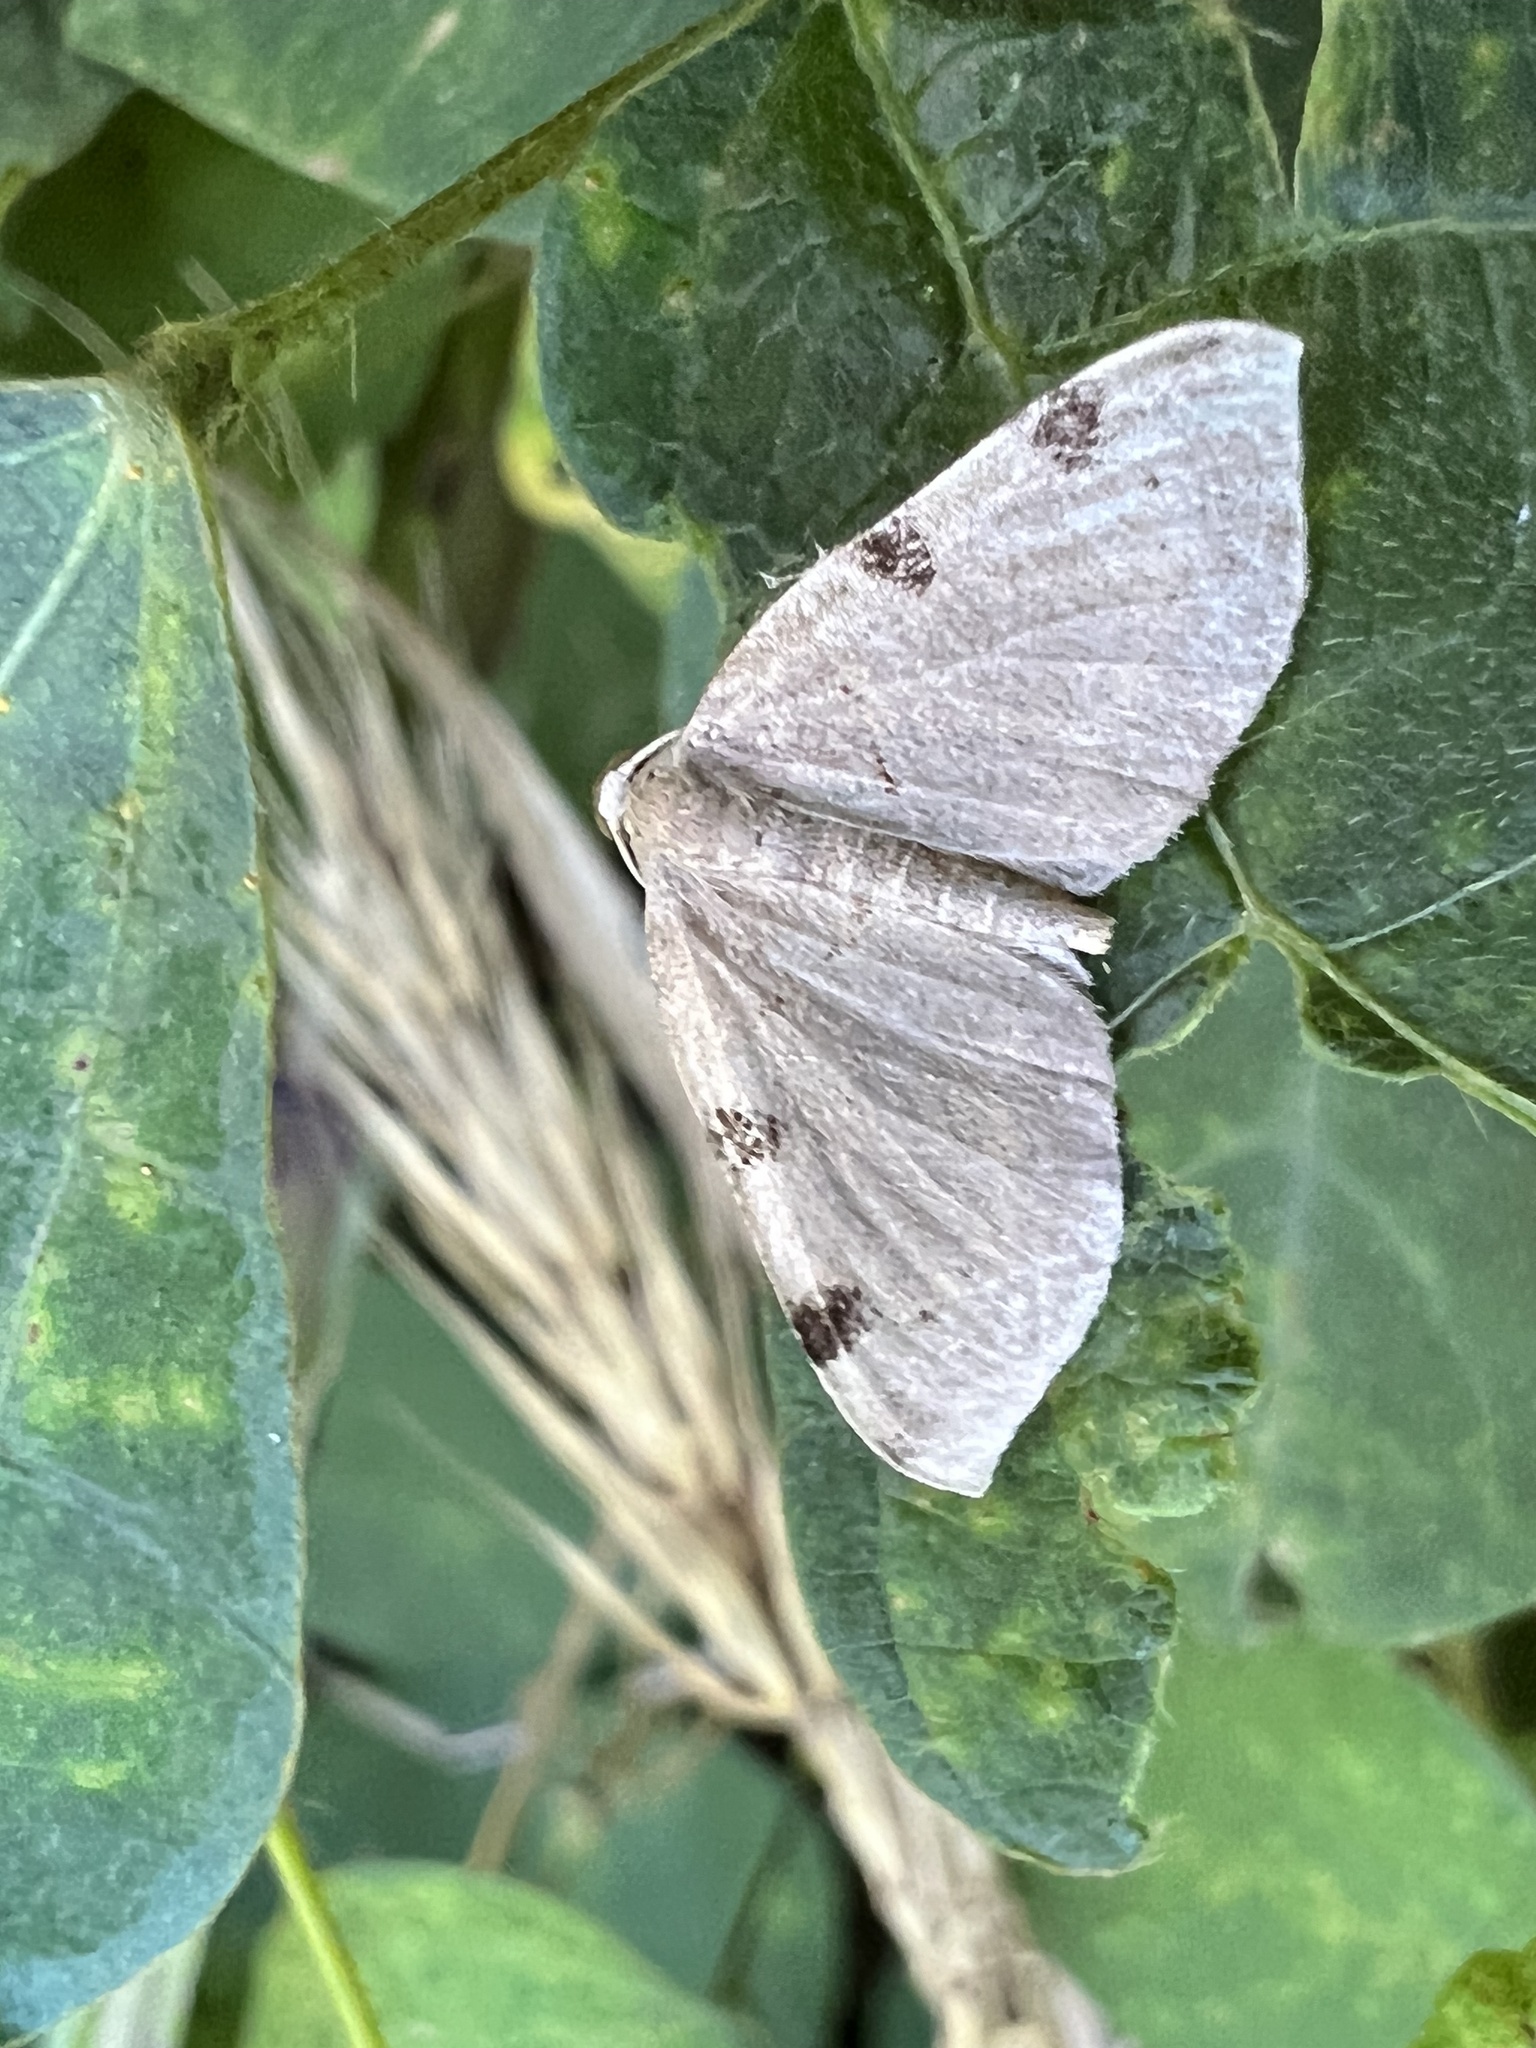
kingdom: Animalia
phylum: Arthropoda
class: Insecta
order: Lepidoptera
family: Geometridae
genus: Heterophleps
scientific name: Heterophleps triguttaria
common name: Three-spotted fillip
